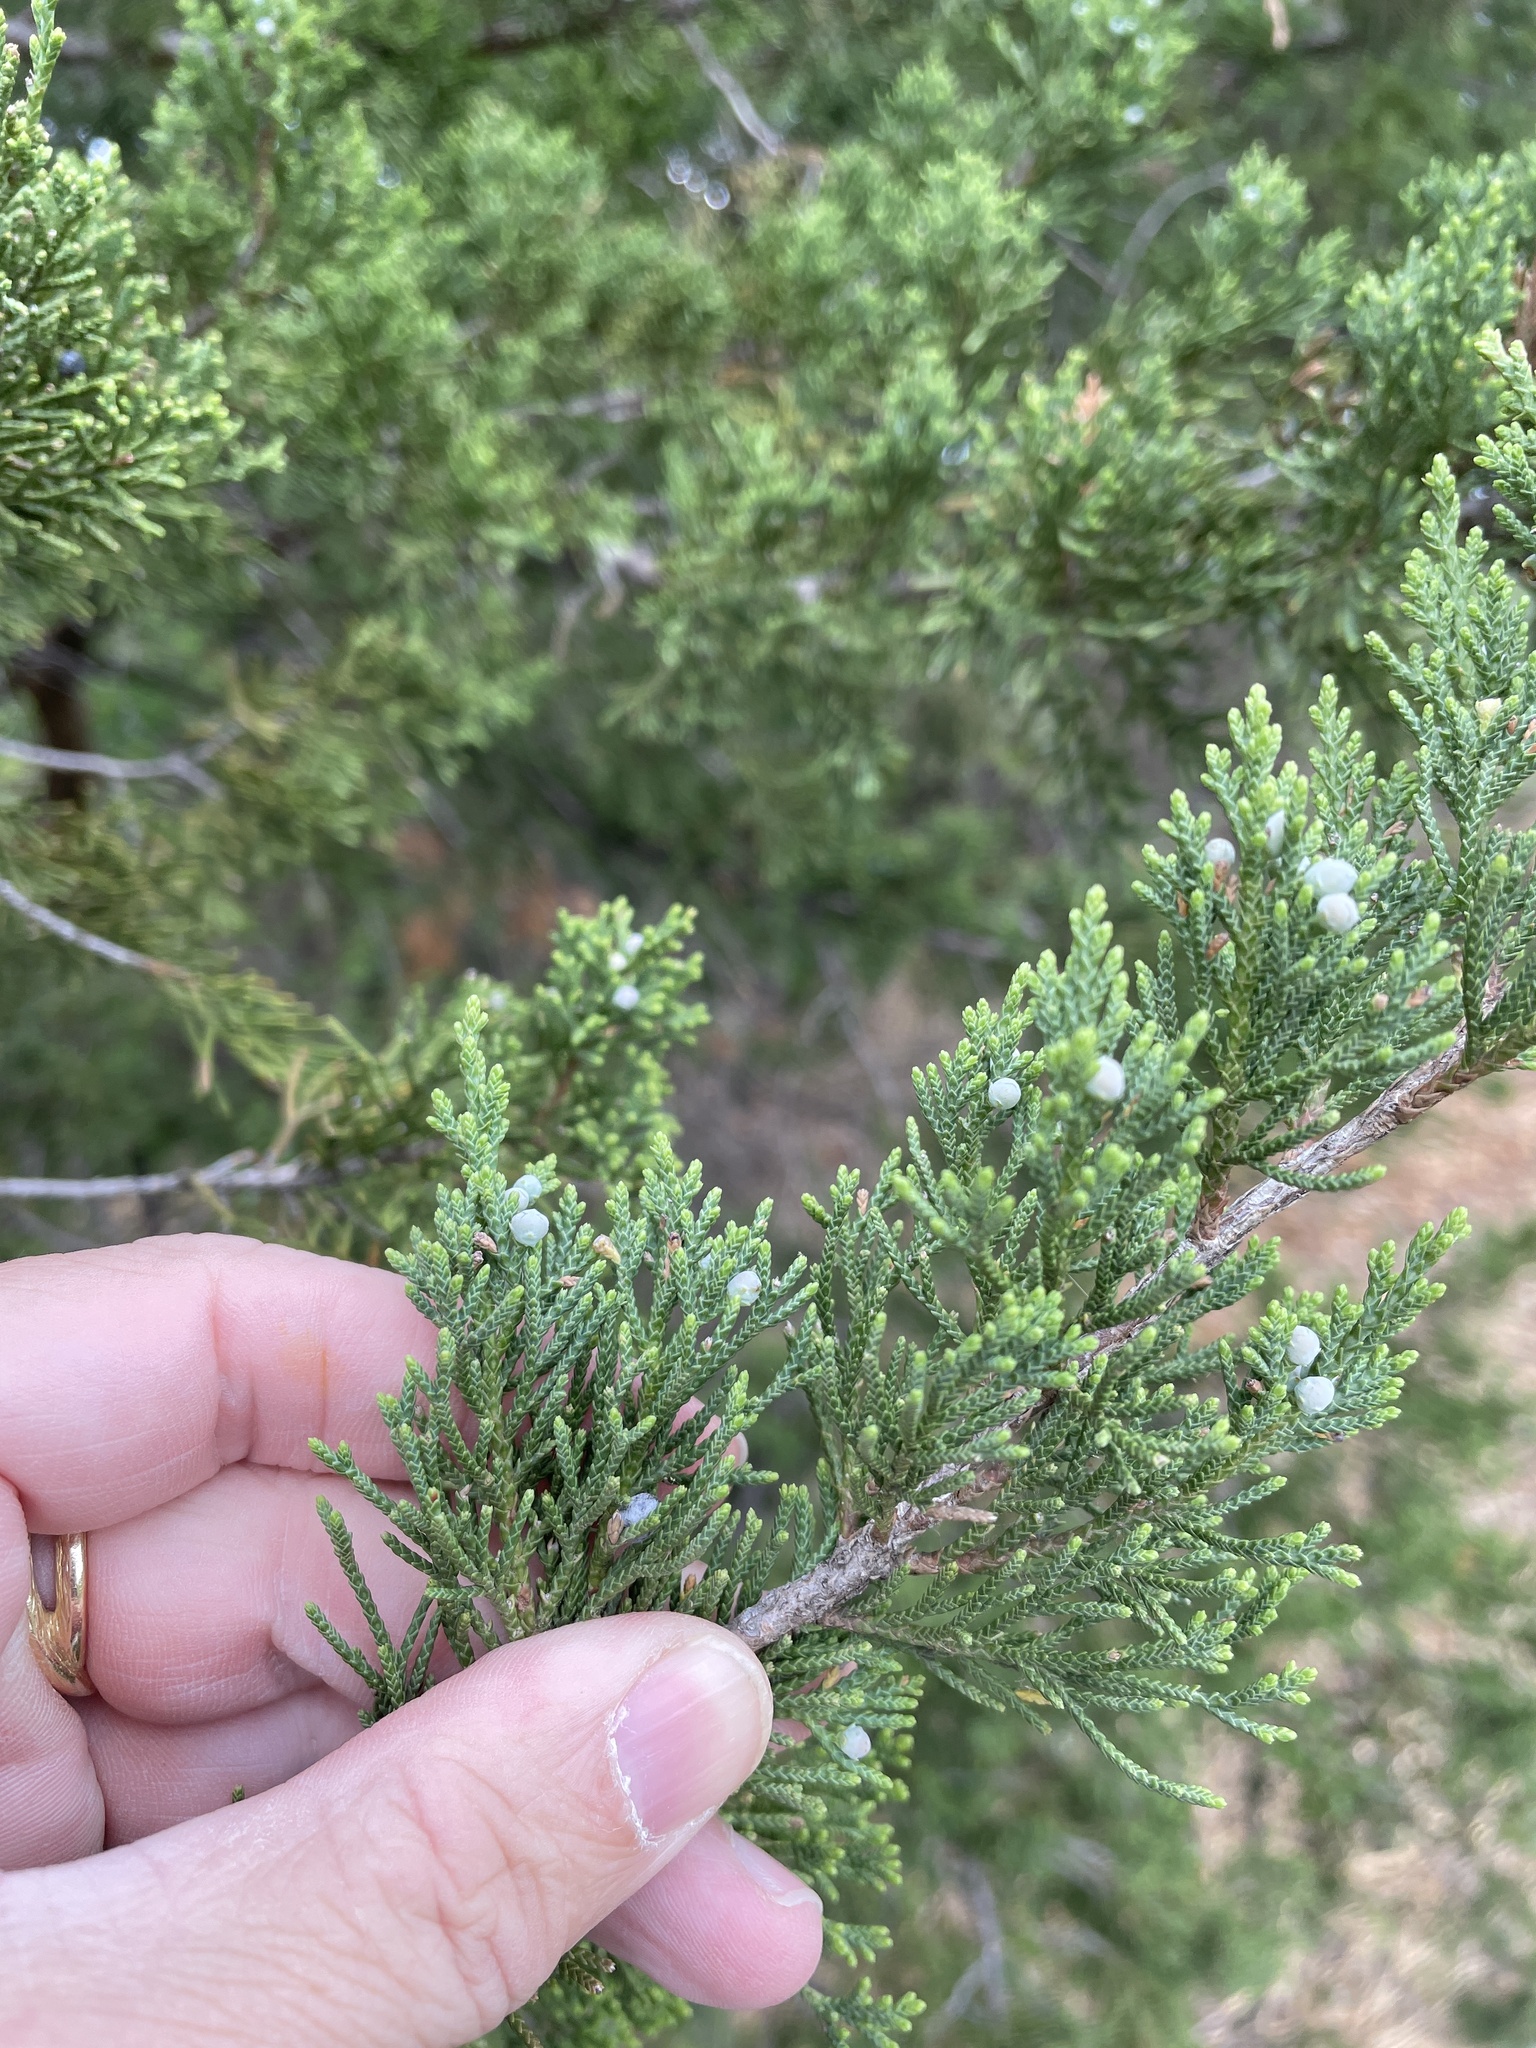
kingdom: Plantae
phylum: Tracheophyta
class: Pinopsida
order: Pinales
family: Cupressaceae
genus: Juniperus
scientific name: Juniperus virginiana
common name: Red juniper
